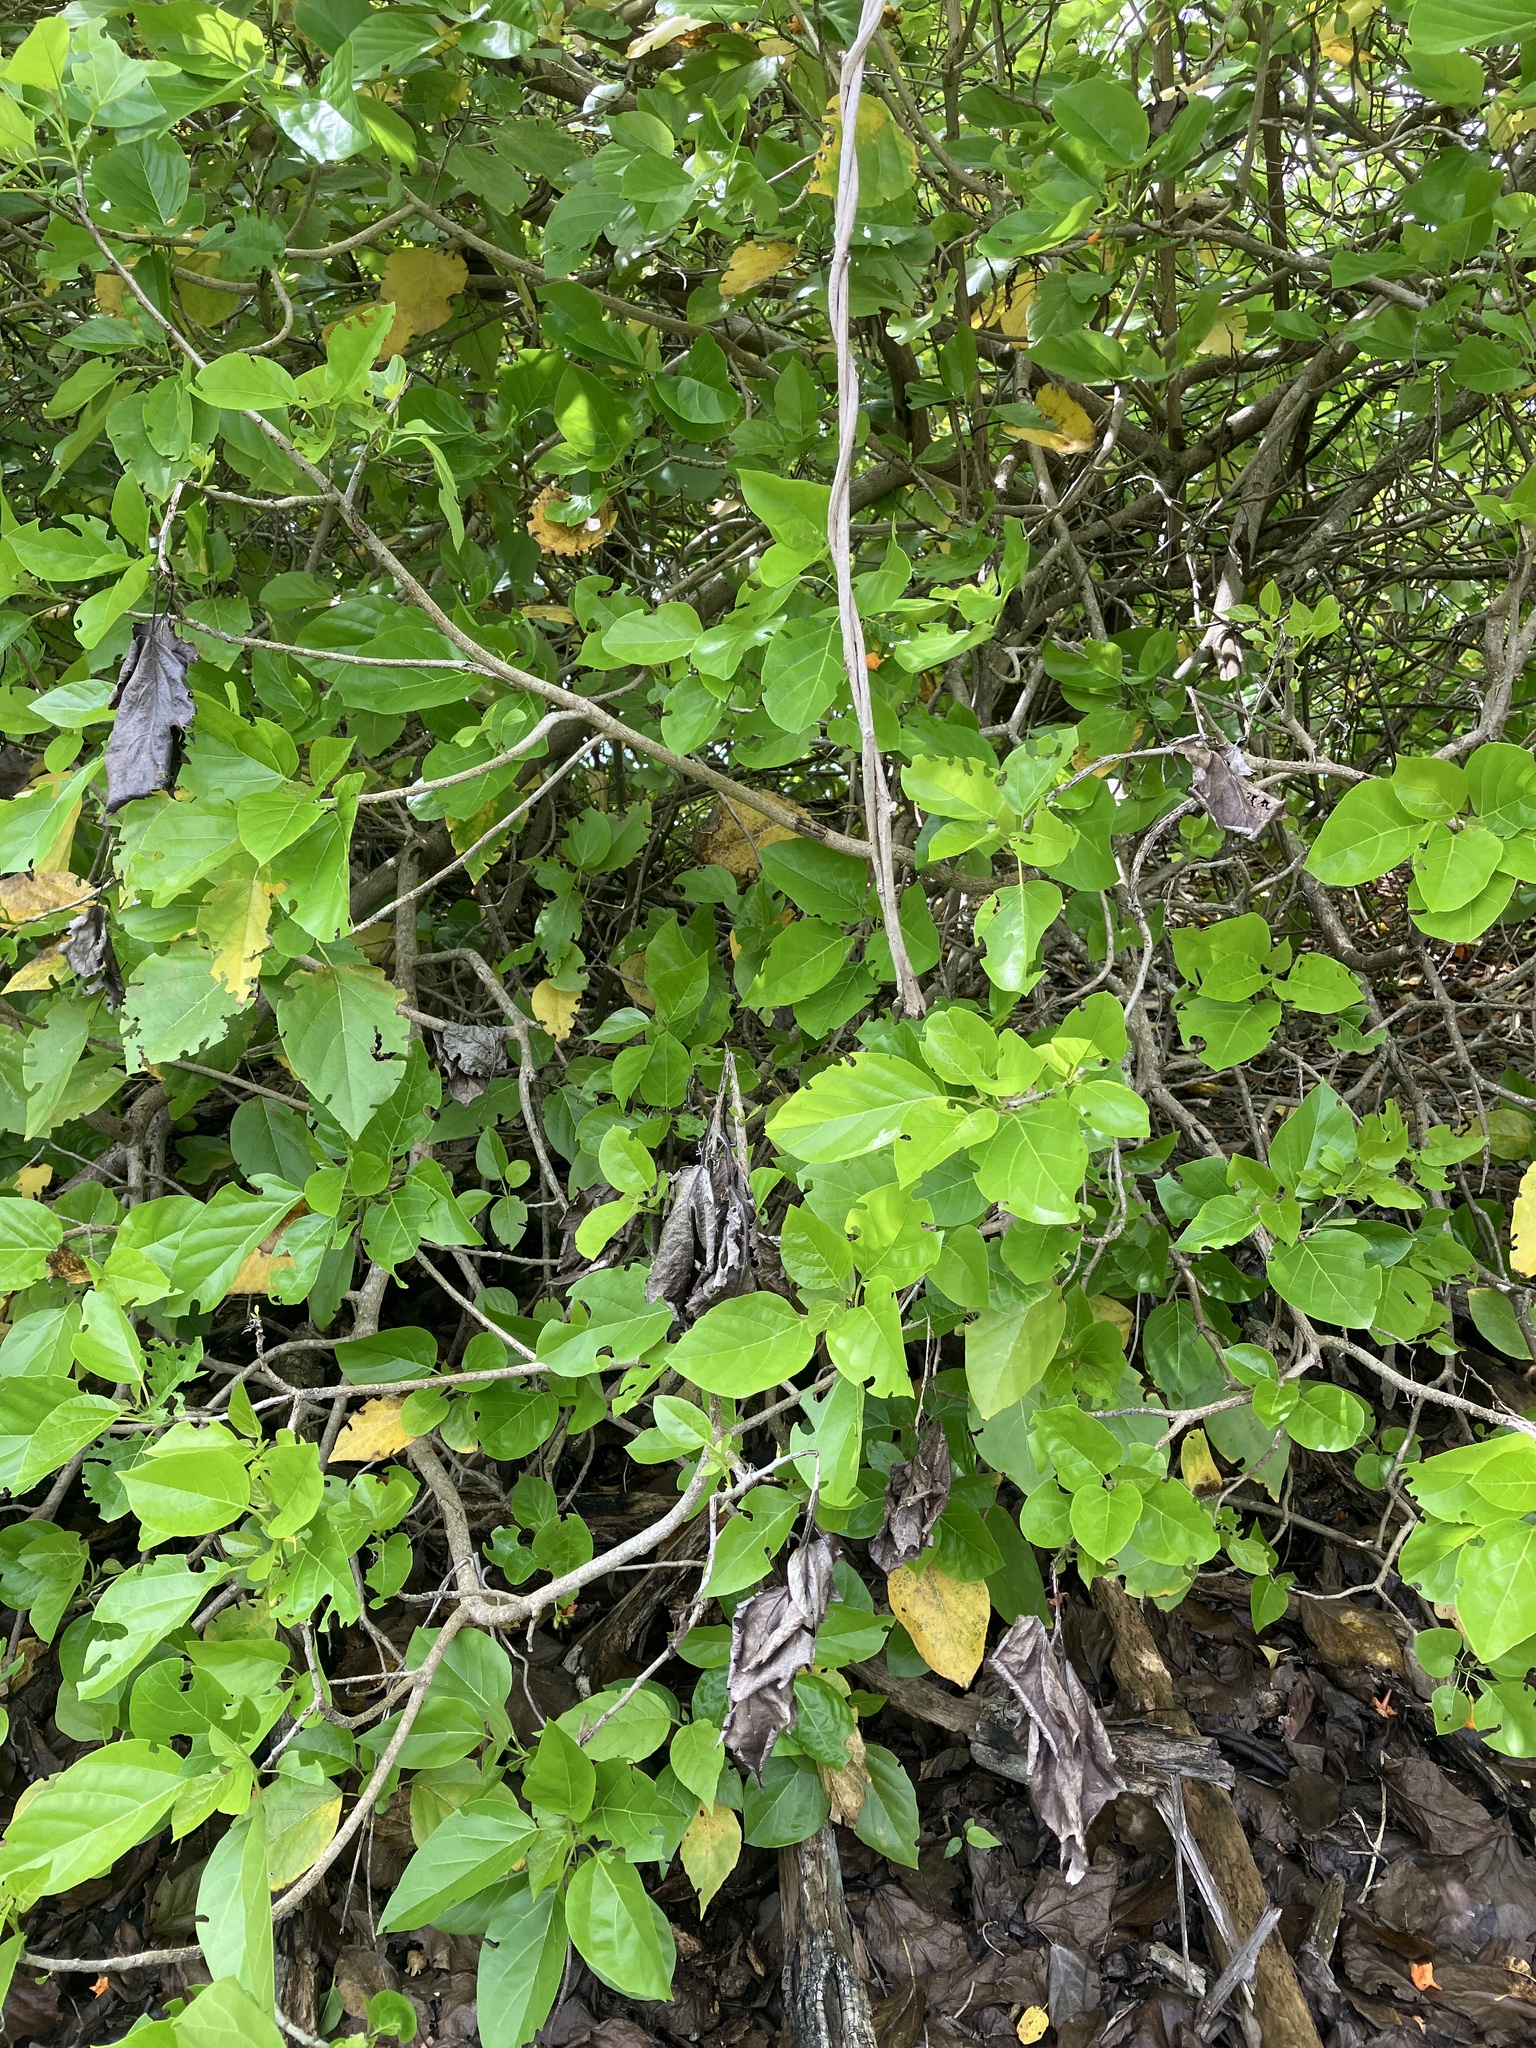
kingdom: Plantae
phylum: Tracheophyta
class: Magnoliopsida
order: Boraginales
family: Cordiaceae
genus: Cordia
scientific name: Cordia subcordata
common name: Mareer
